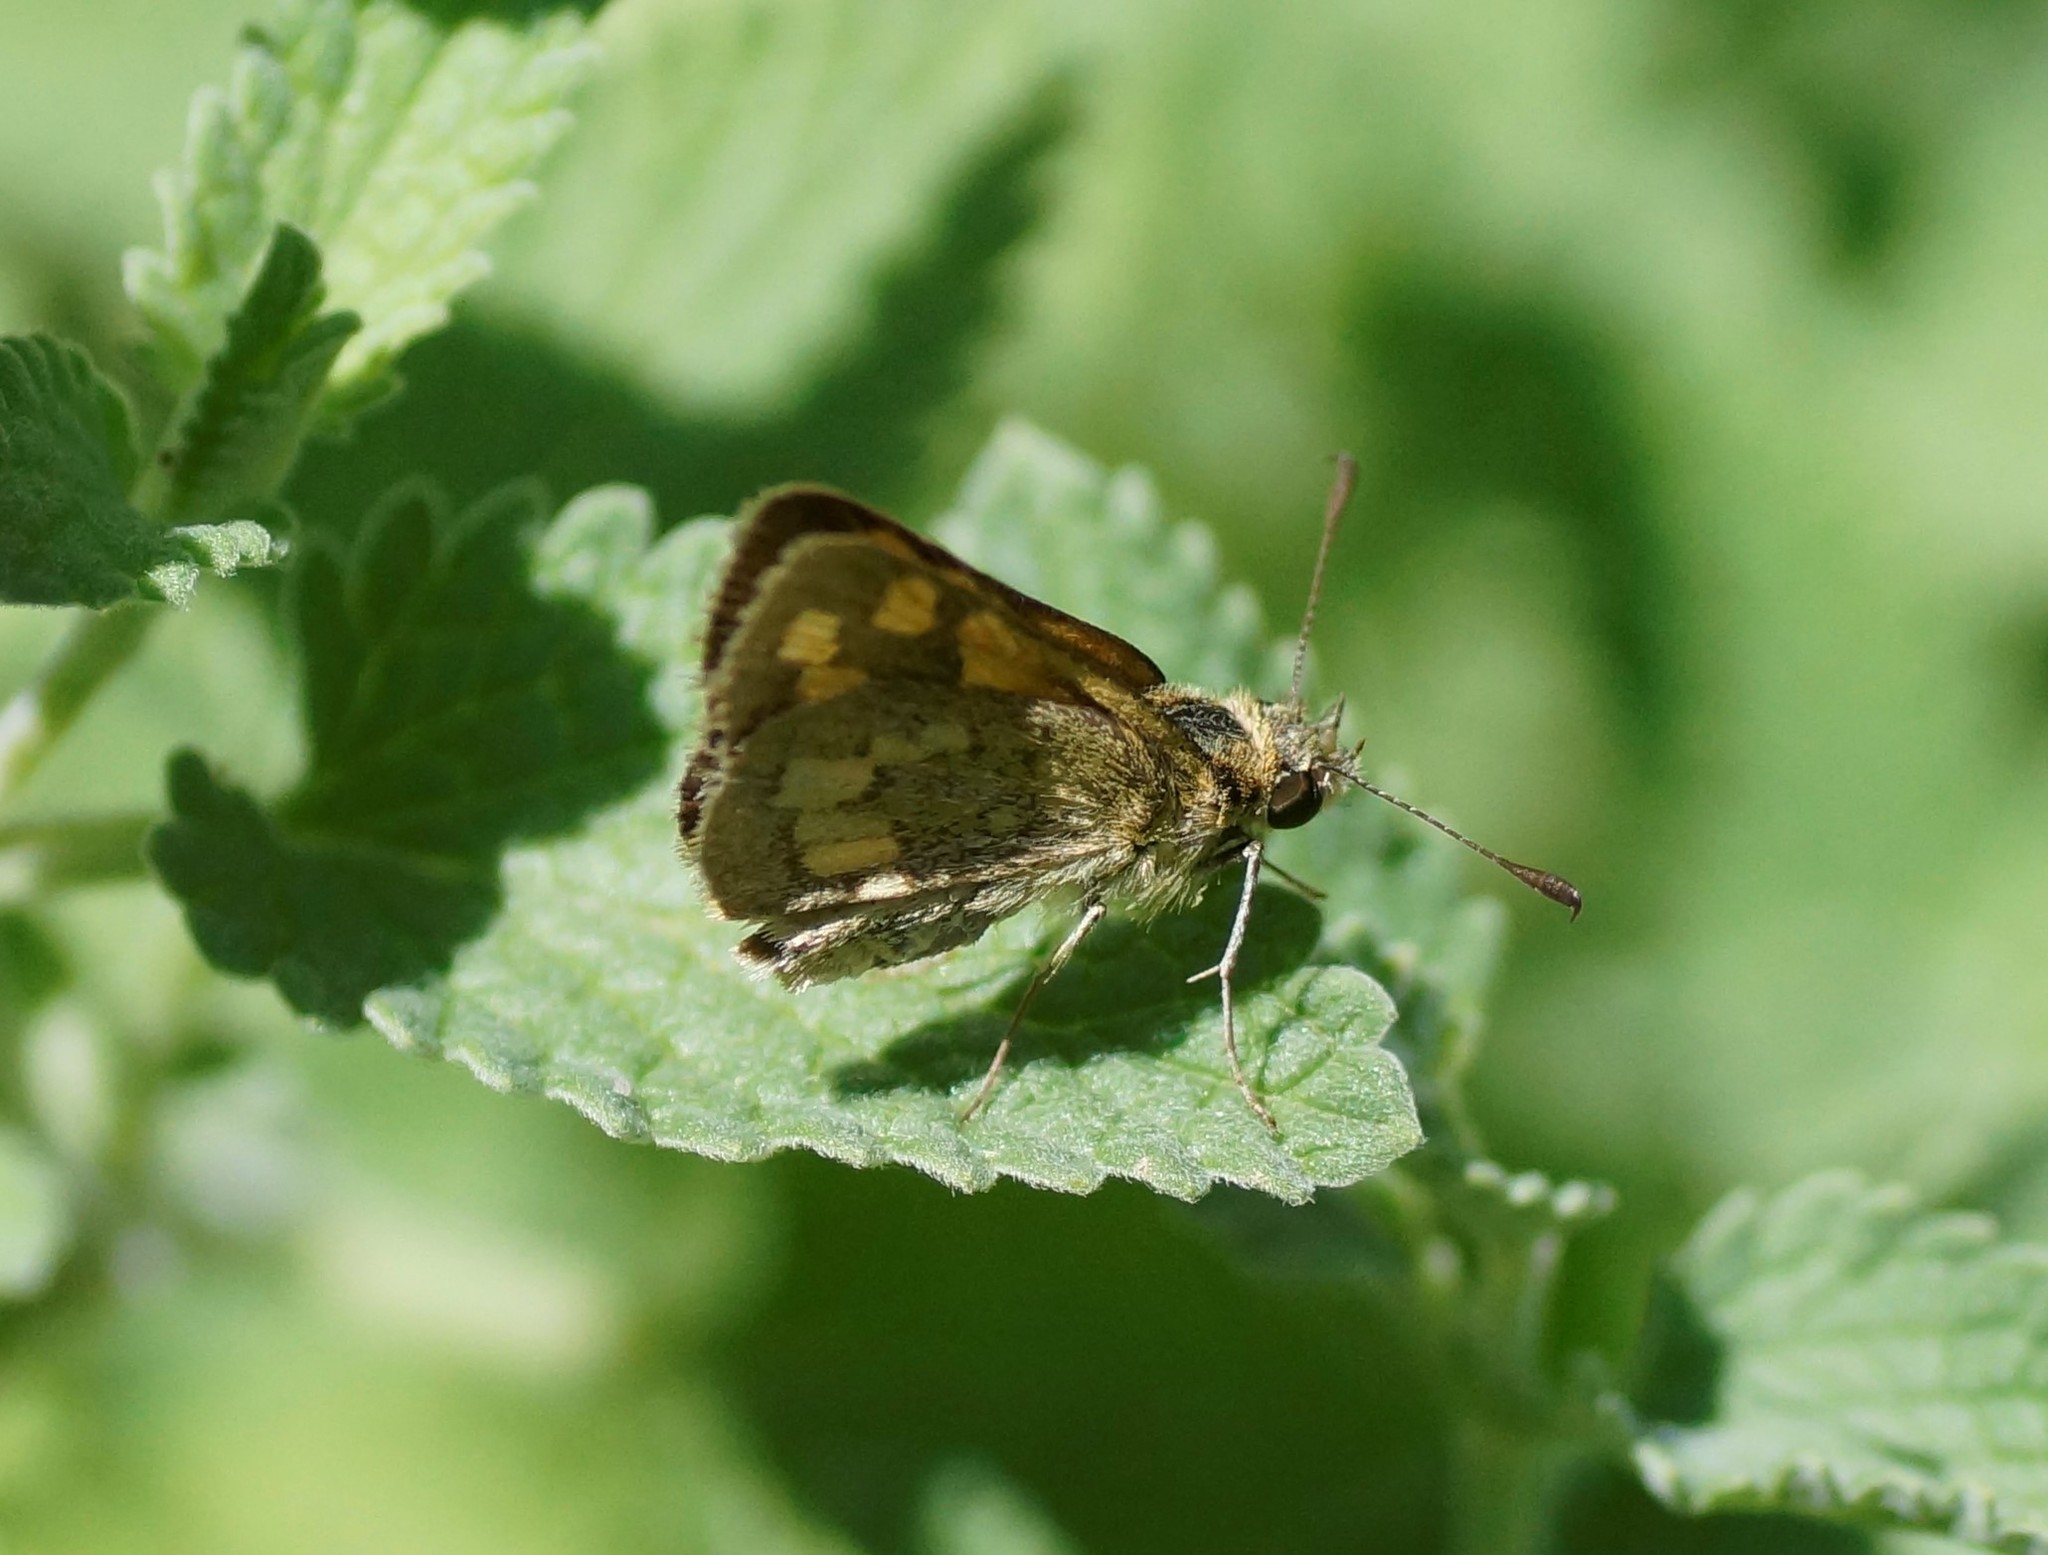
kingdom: Animalia
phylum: Arthropoda
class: Insecta
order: Lepidoptera
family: Hesperiidae
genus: Ocybadistes
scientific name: Ocybadistes walkeri
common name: Yellow-banded dart
